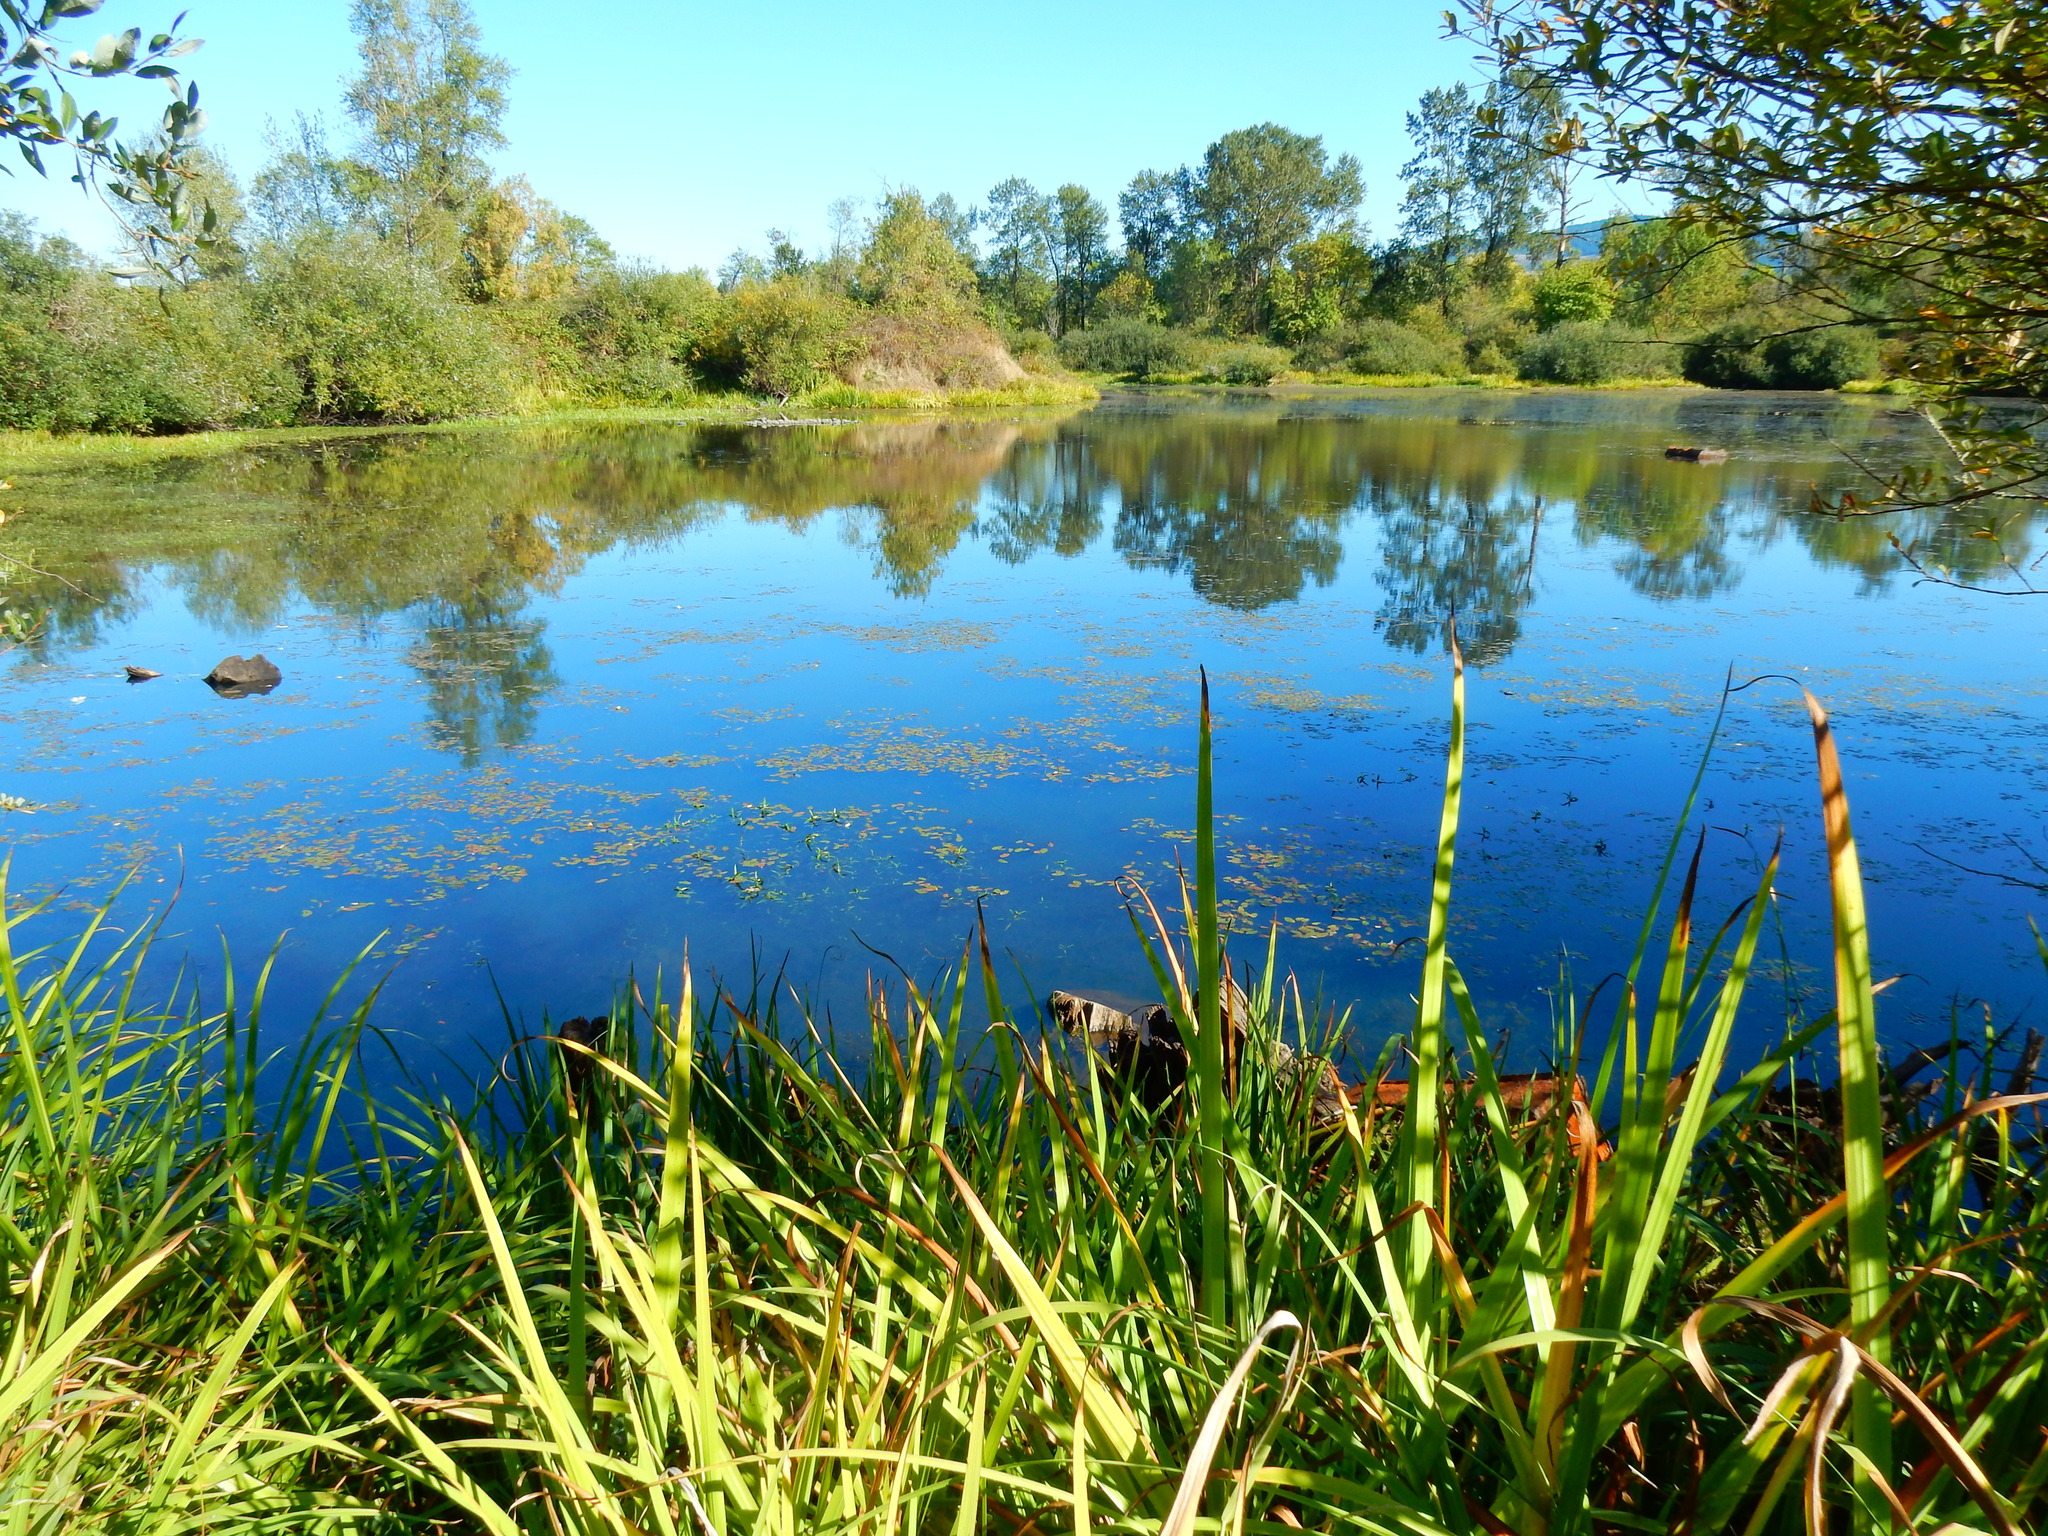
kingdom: Plantae
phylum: Tracheophyta
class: Liliopsida
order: Asparagales
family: Iridaceae
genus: Iris
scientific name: Iris pseudacorus
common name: Yellow flag
